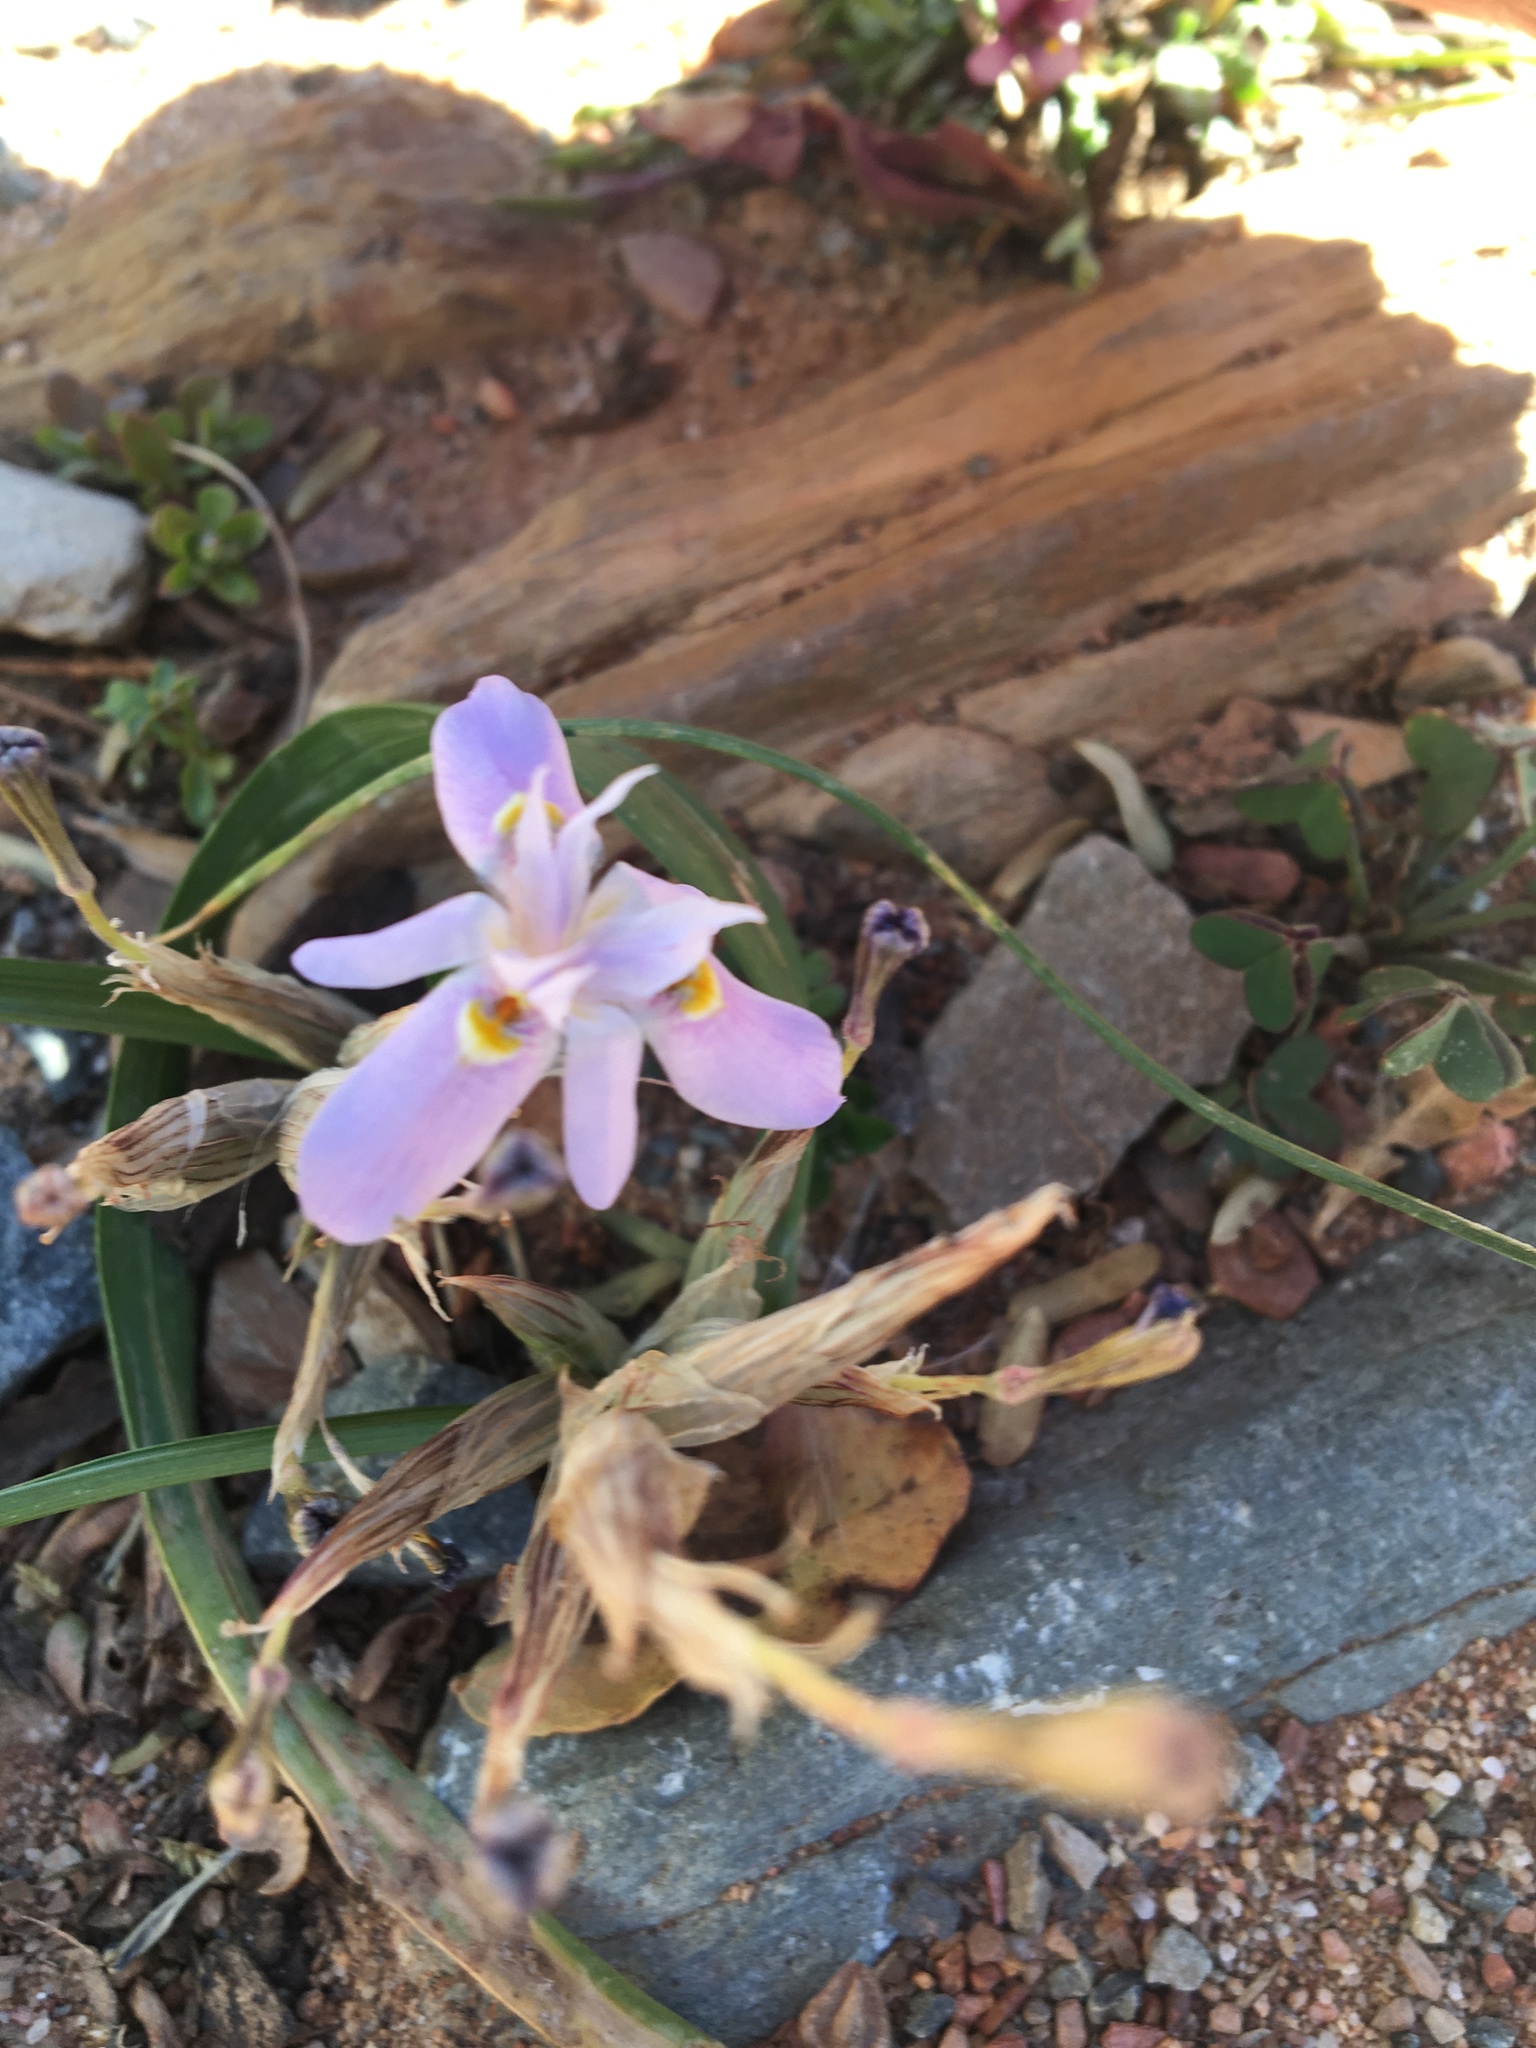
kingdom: Plantae
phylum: Tracheophyta
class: Liliopsida
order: Asparagales
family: Iridaceae
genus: Moraea
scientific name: Moraea setifolia
